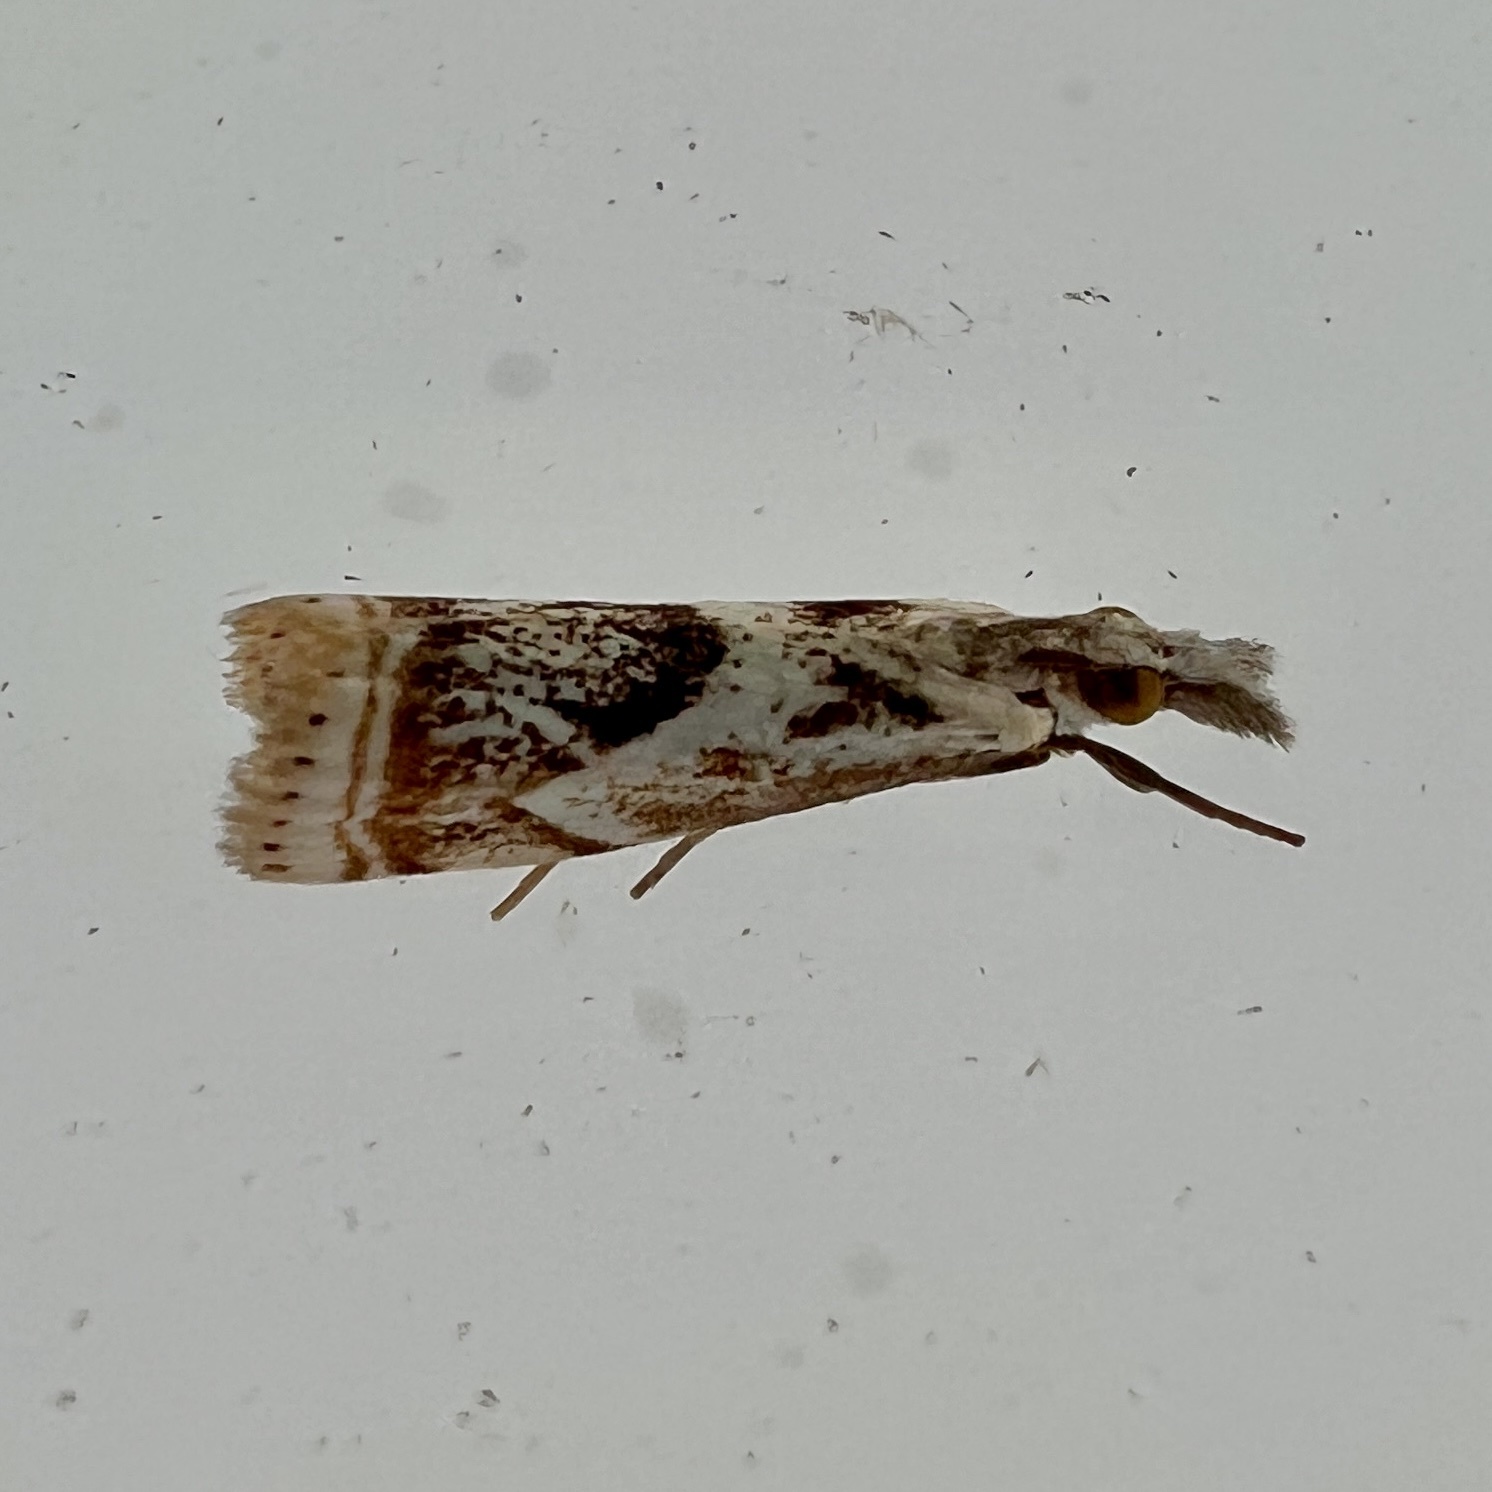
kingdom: Animalia
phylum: Arthropoda
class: Insecta
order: Lepidoptera
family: Crambidae
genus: Microcrambus
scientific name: Microcrambus elegans
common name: Elegant grass-veneer
